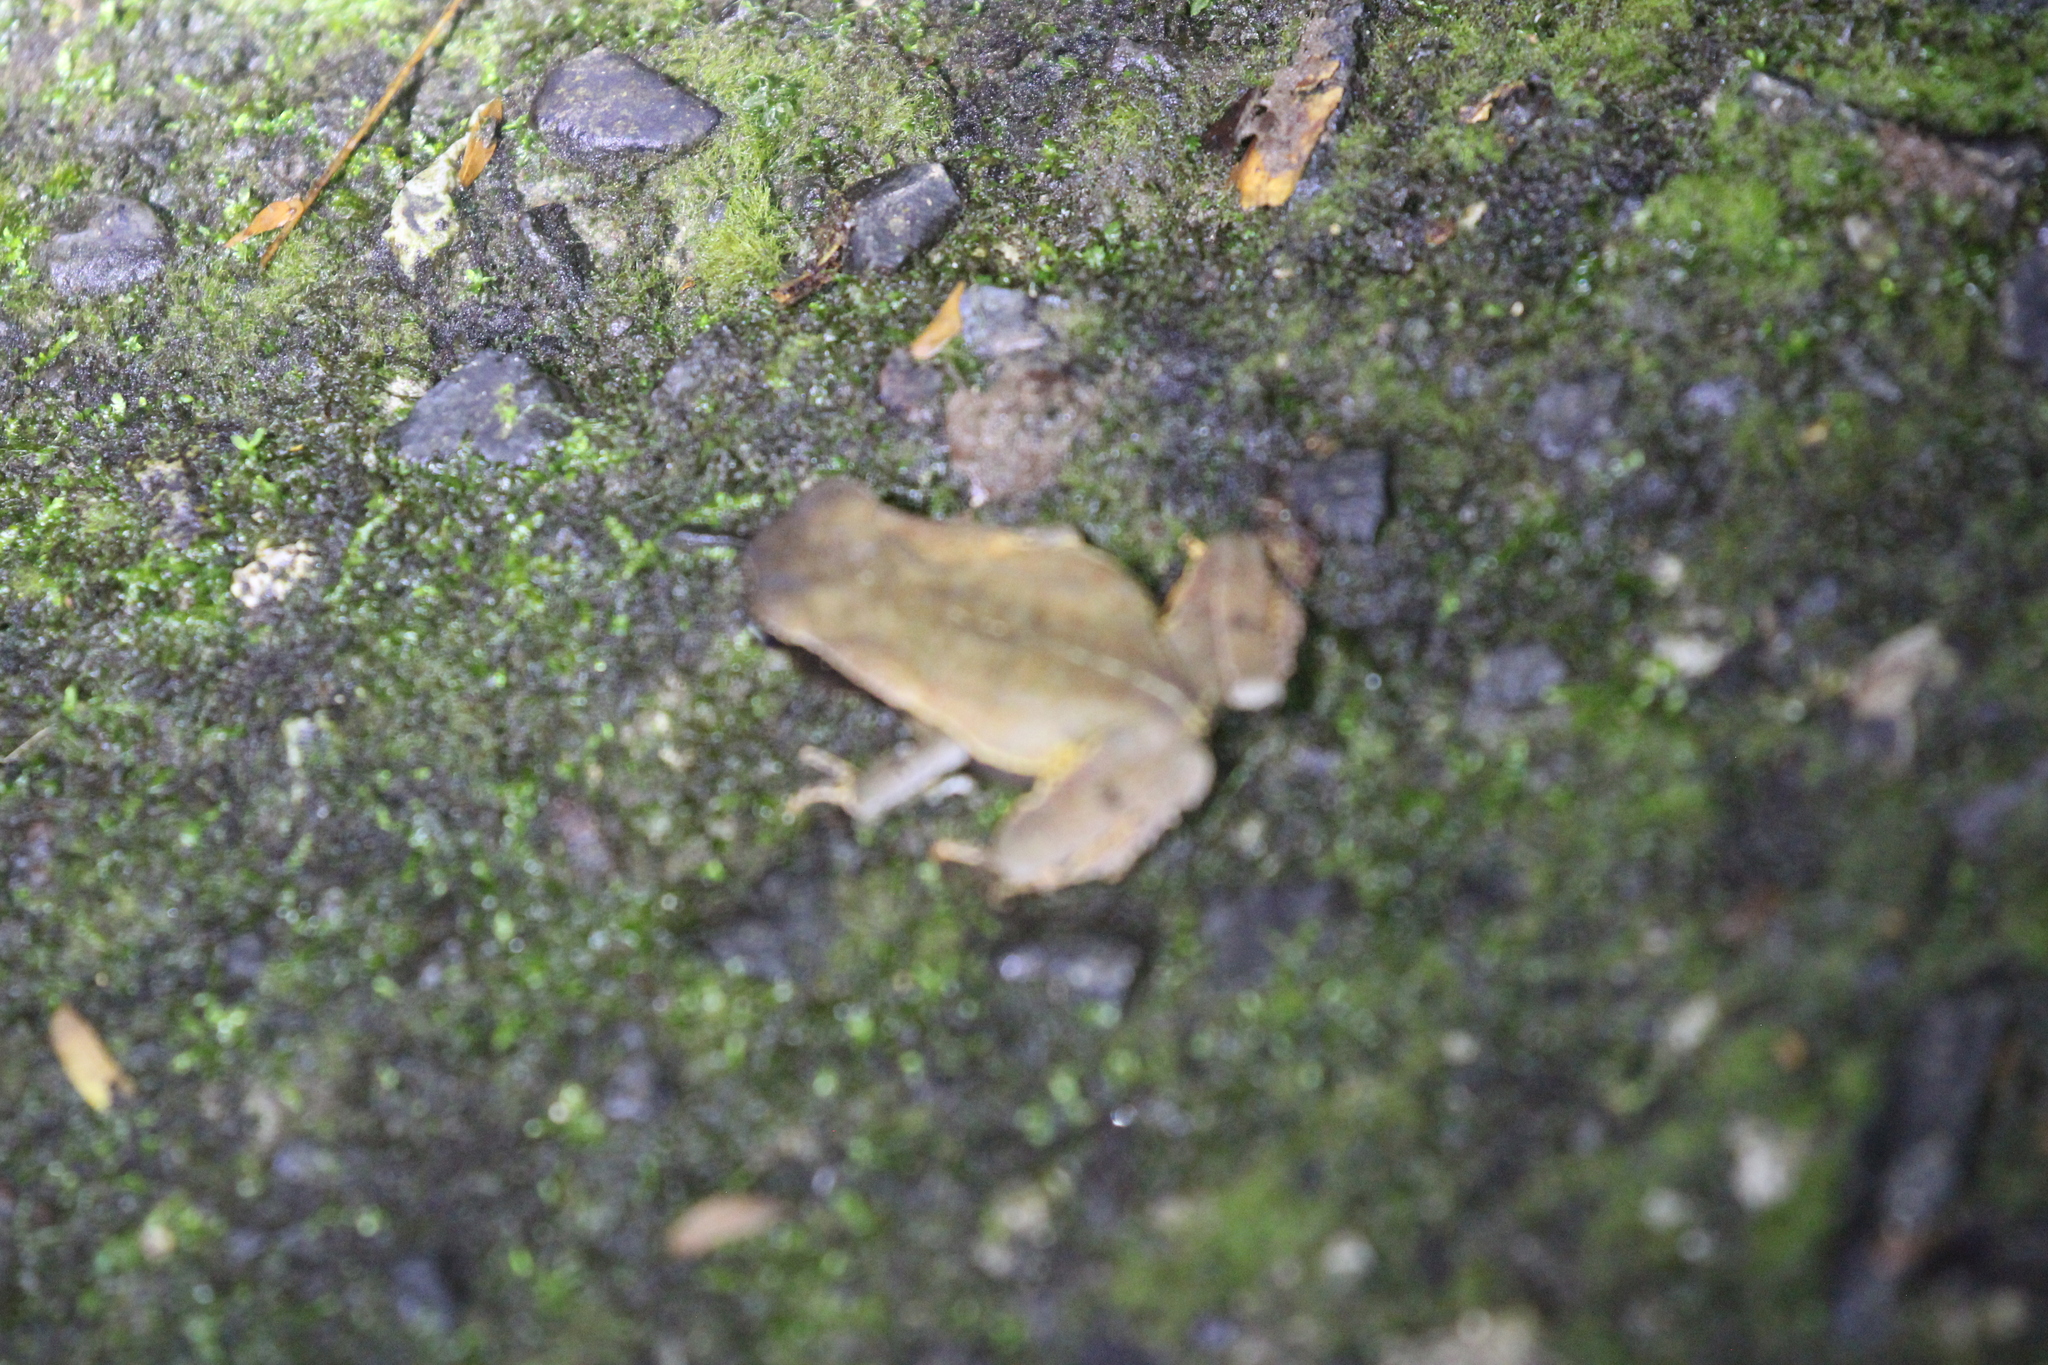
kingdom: Animalia
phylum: Chordata
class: Amphibia
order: Anura
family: Bufonidae
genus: Rhaebo
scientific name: Rhaebo haematiticus
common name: Truando toad
